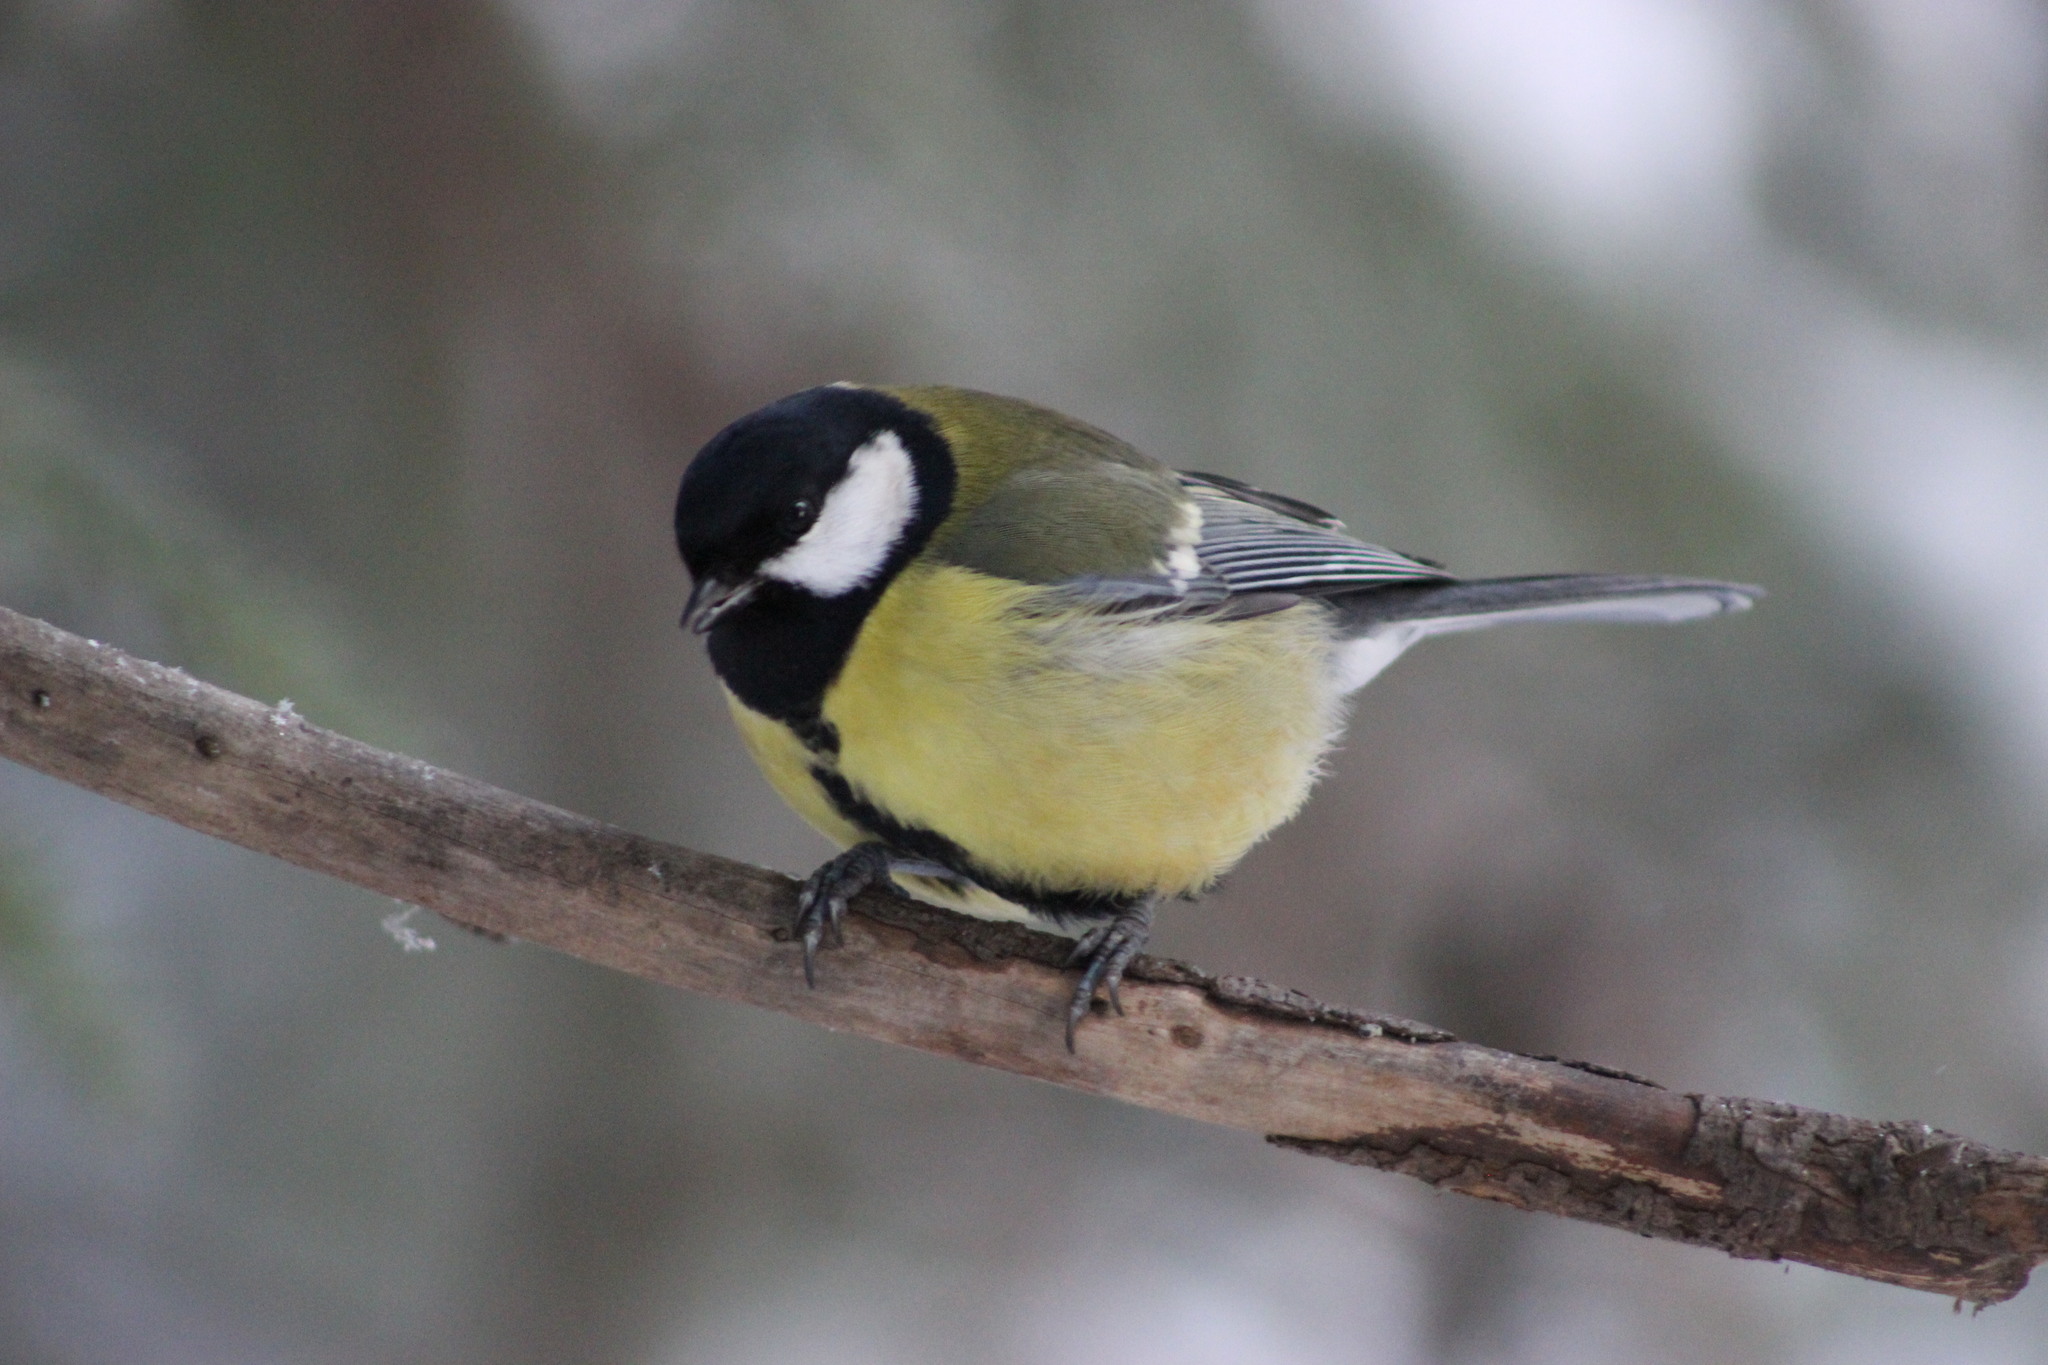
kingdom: Animalia
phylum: Chordata
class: Aves
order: Passeriformes
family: Paridae
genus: Parus
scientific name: Parus major
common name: Great tit
